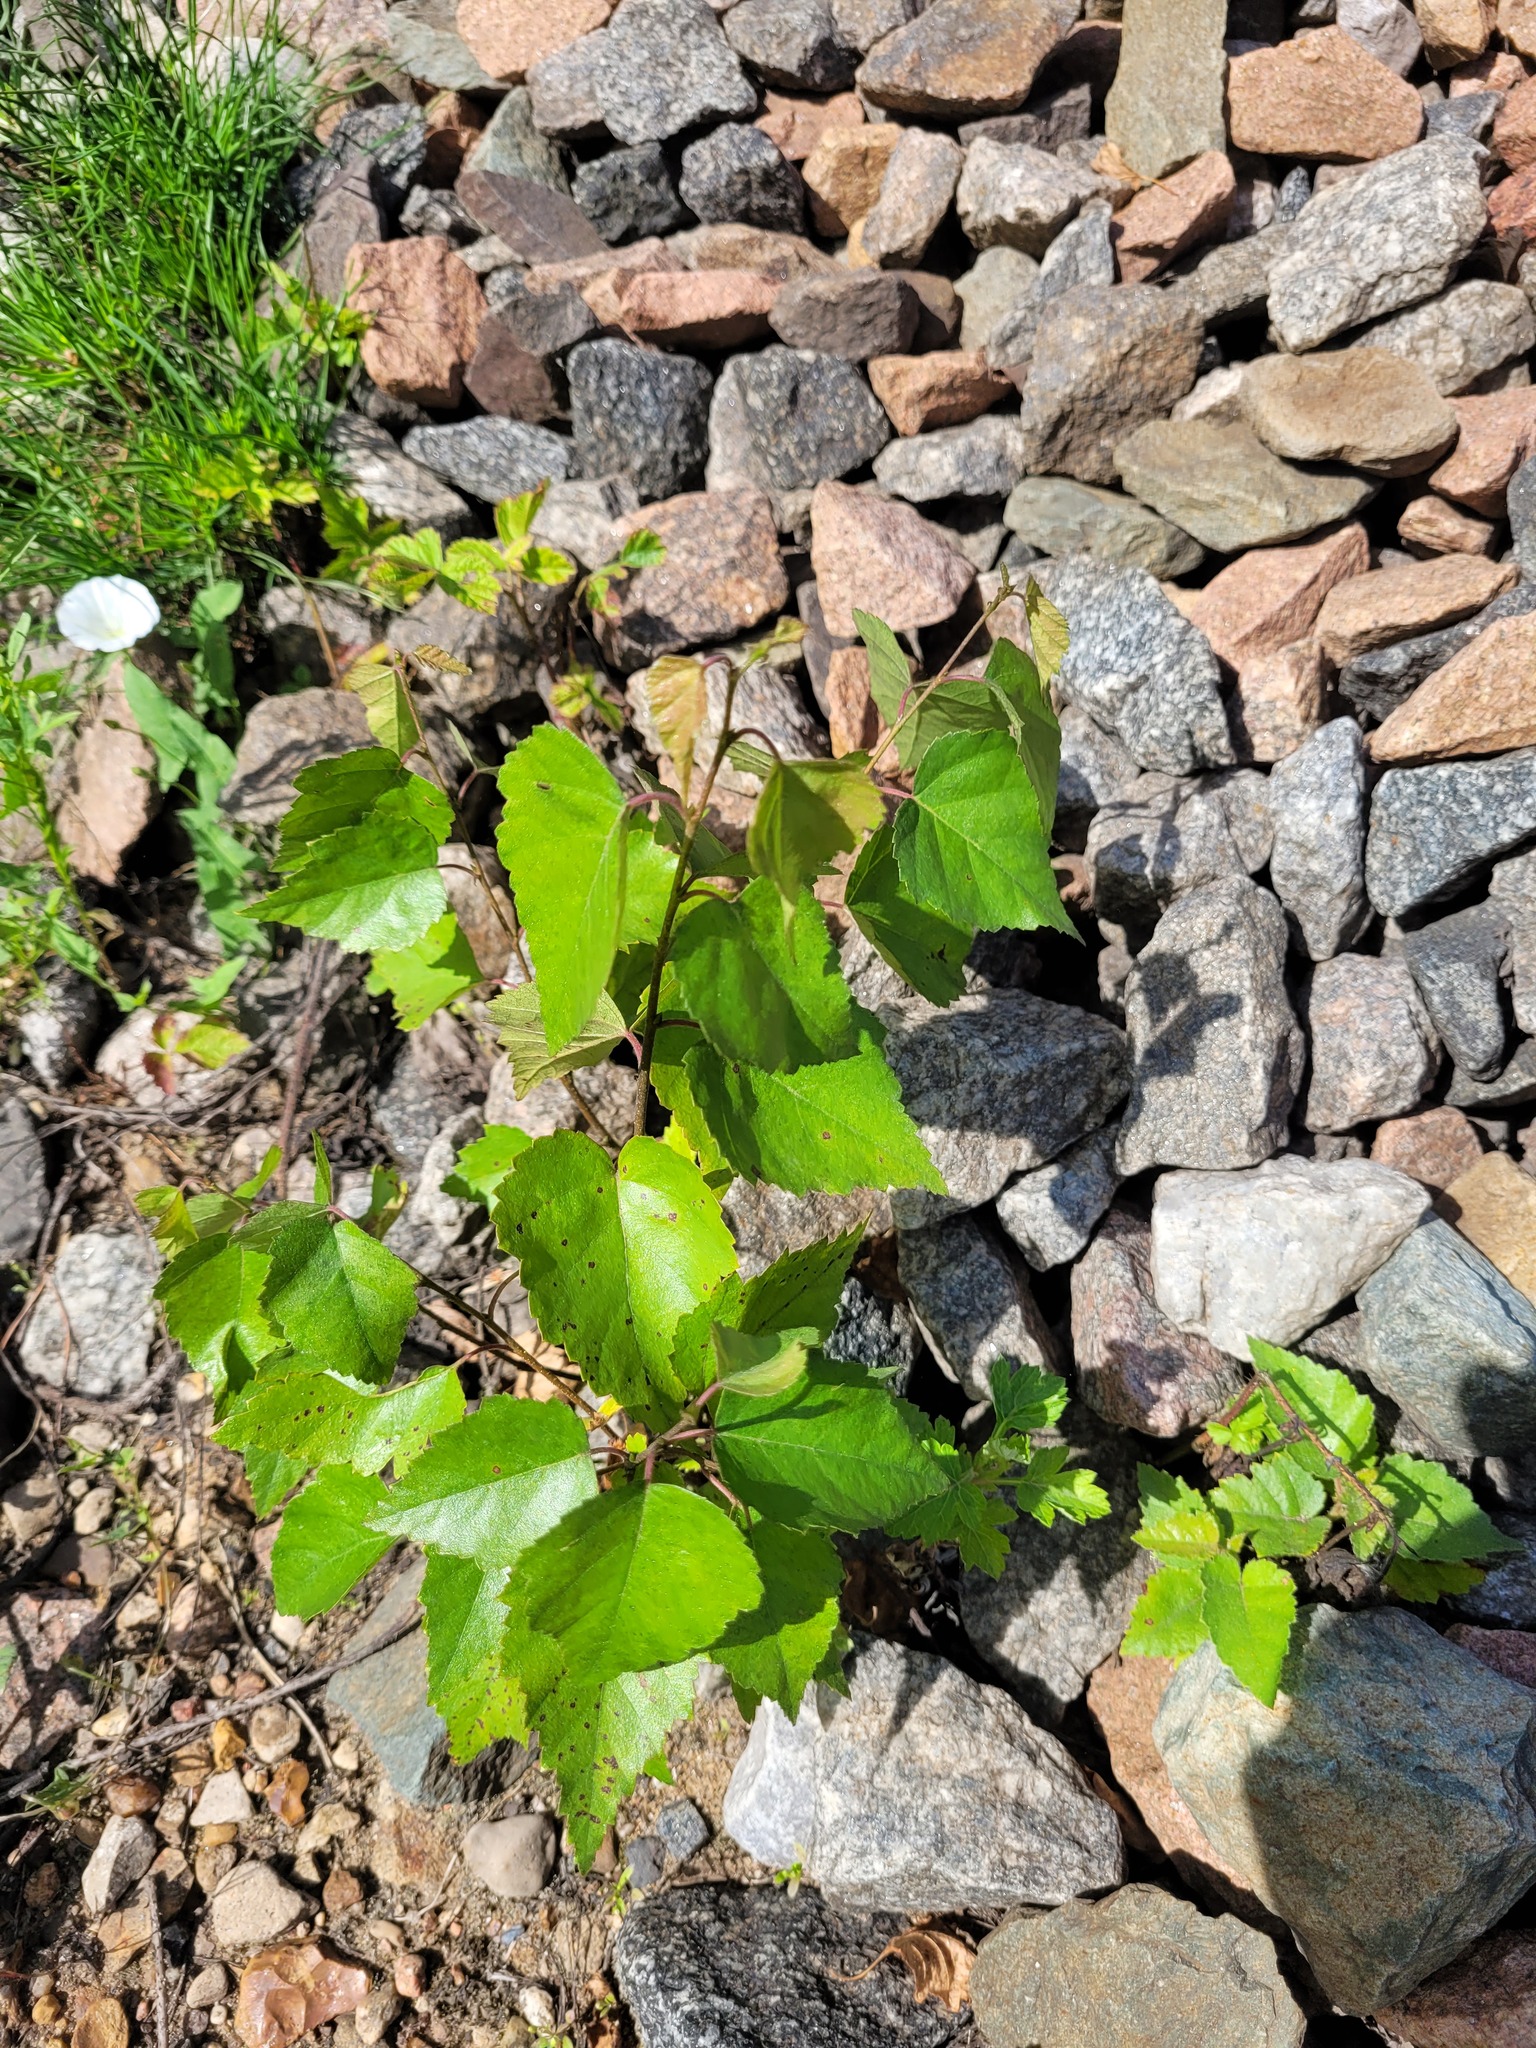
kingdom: Plantae
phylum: Tracheophyta
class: Magnoliopsida
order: Fagales
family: Betulaceae
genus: Betula
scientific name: Betula pendula
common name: Silver birch
